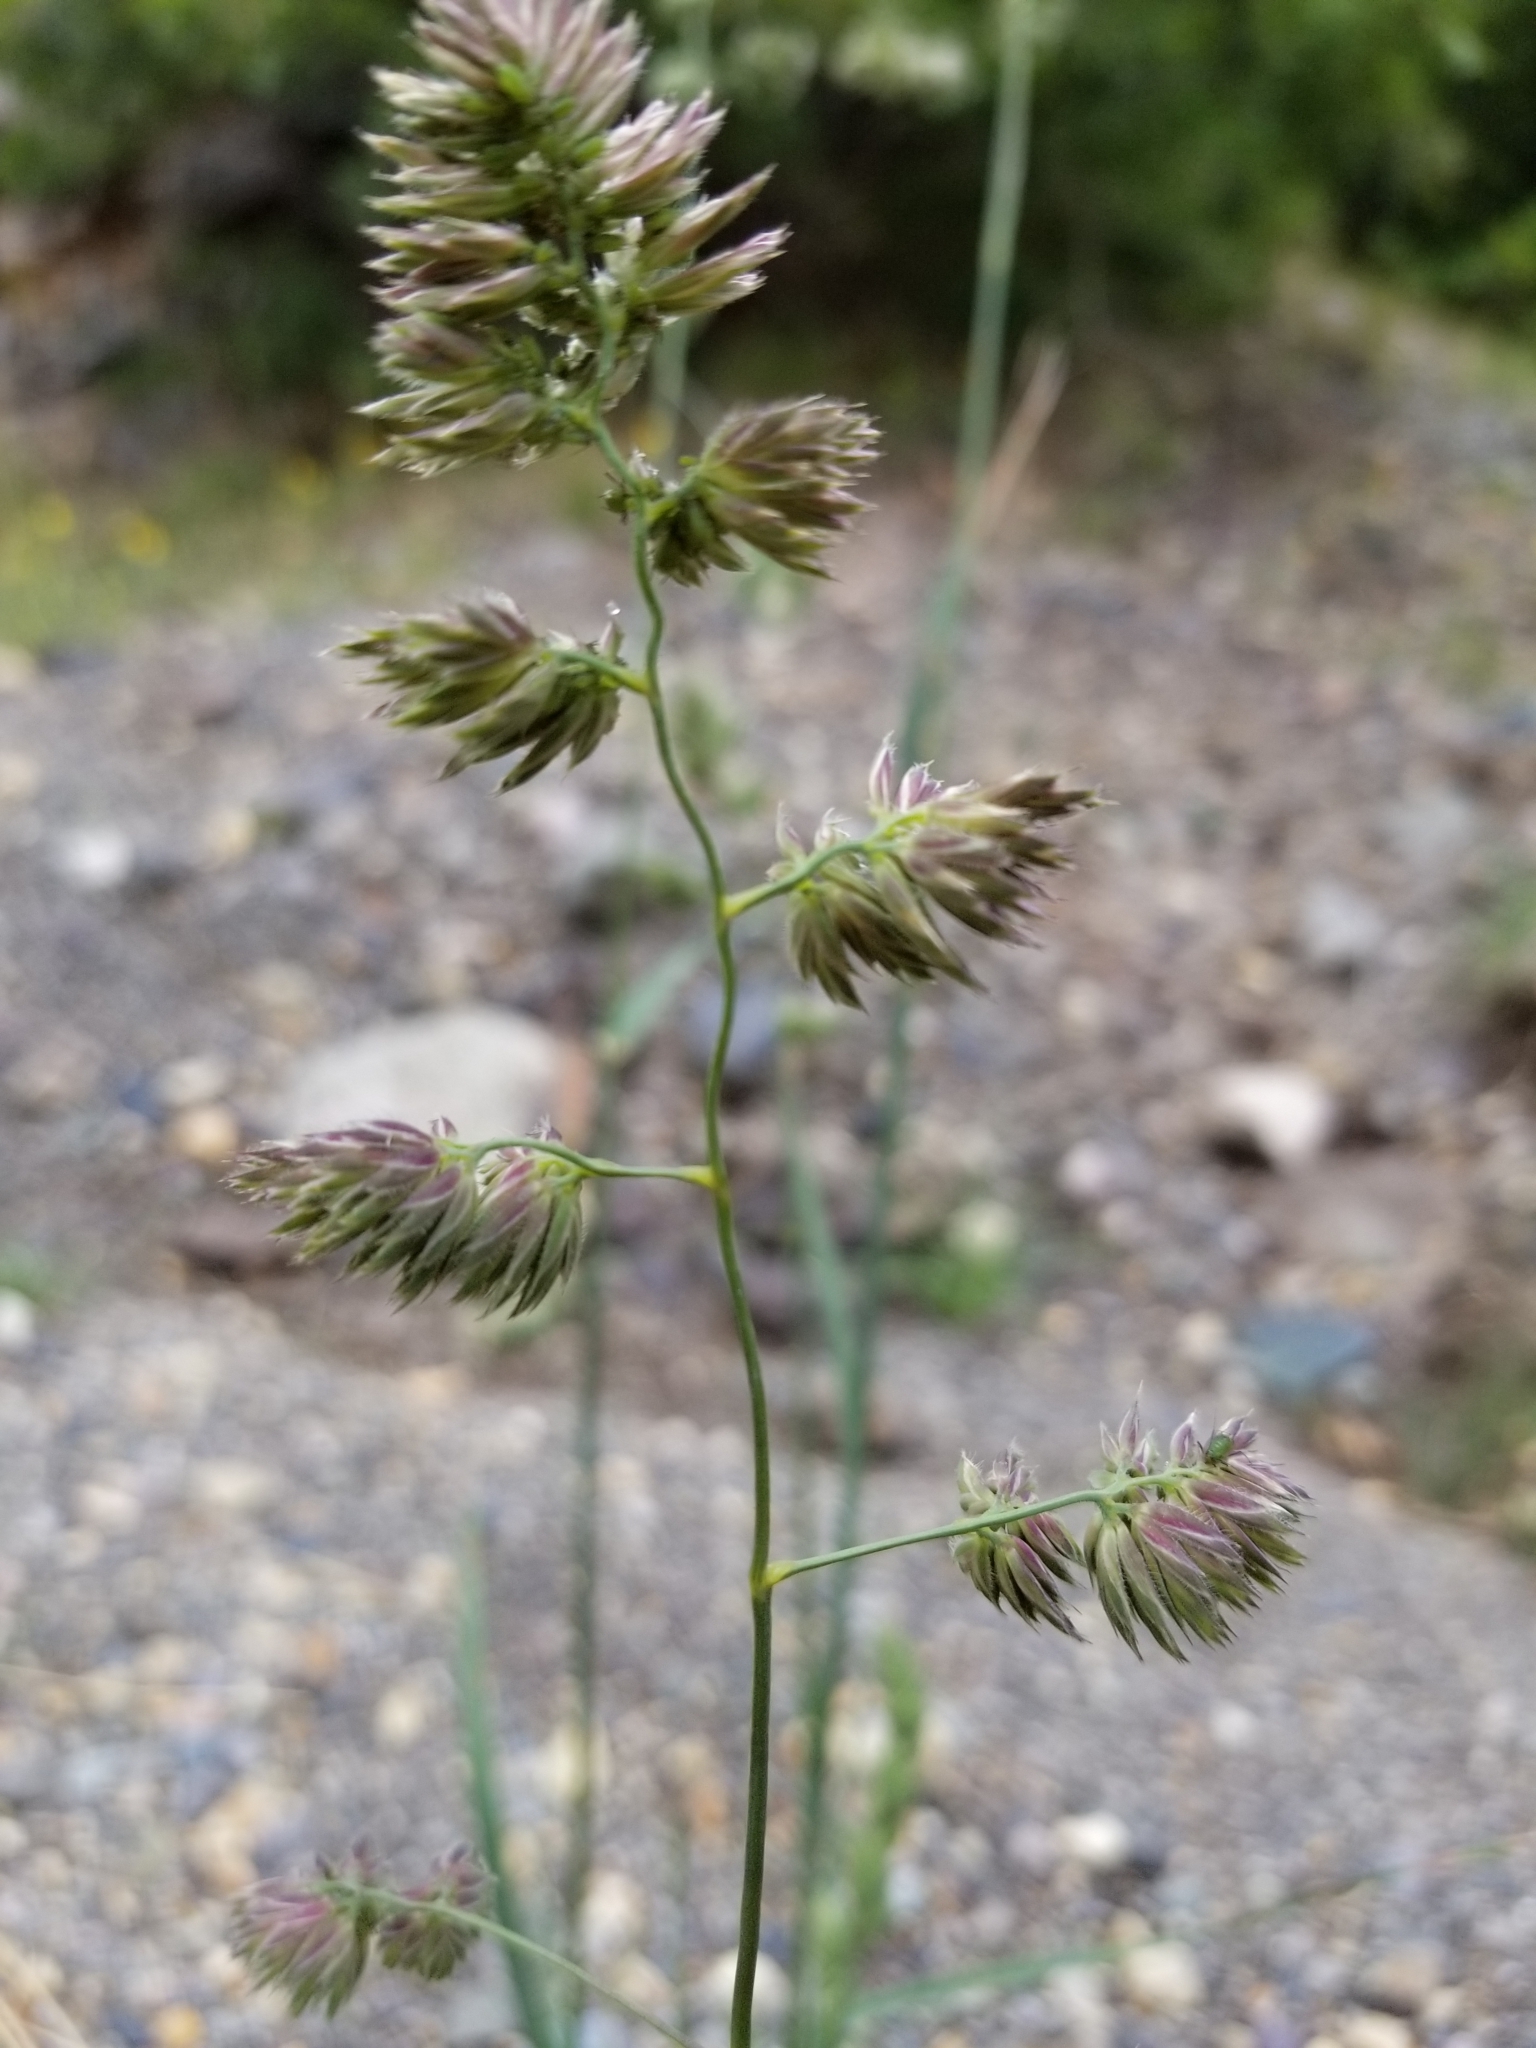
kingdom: Plantae
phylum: Tracheophyta
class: Liliopsida
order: Poales
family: Poaceae
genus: Dactylis
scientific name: Dactylis glomerata
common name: Orchardgrass
